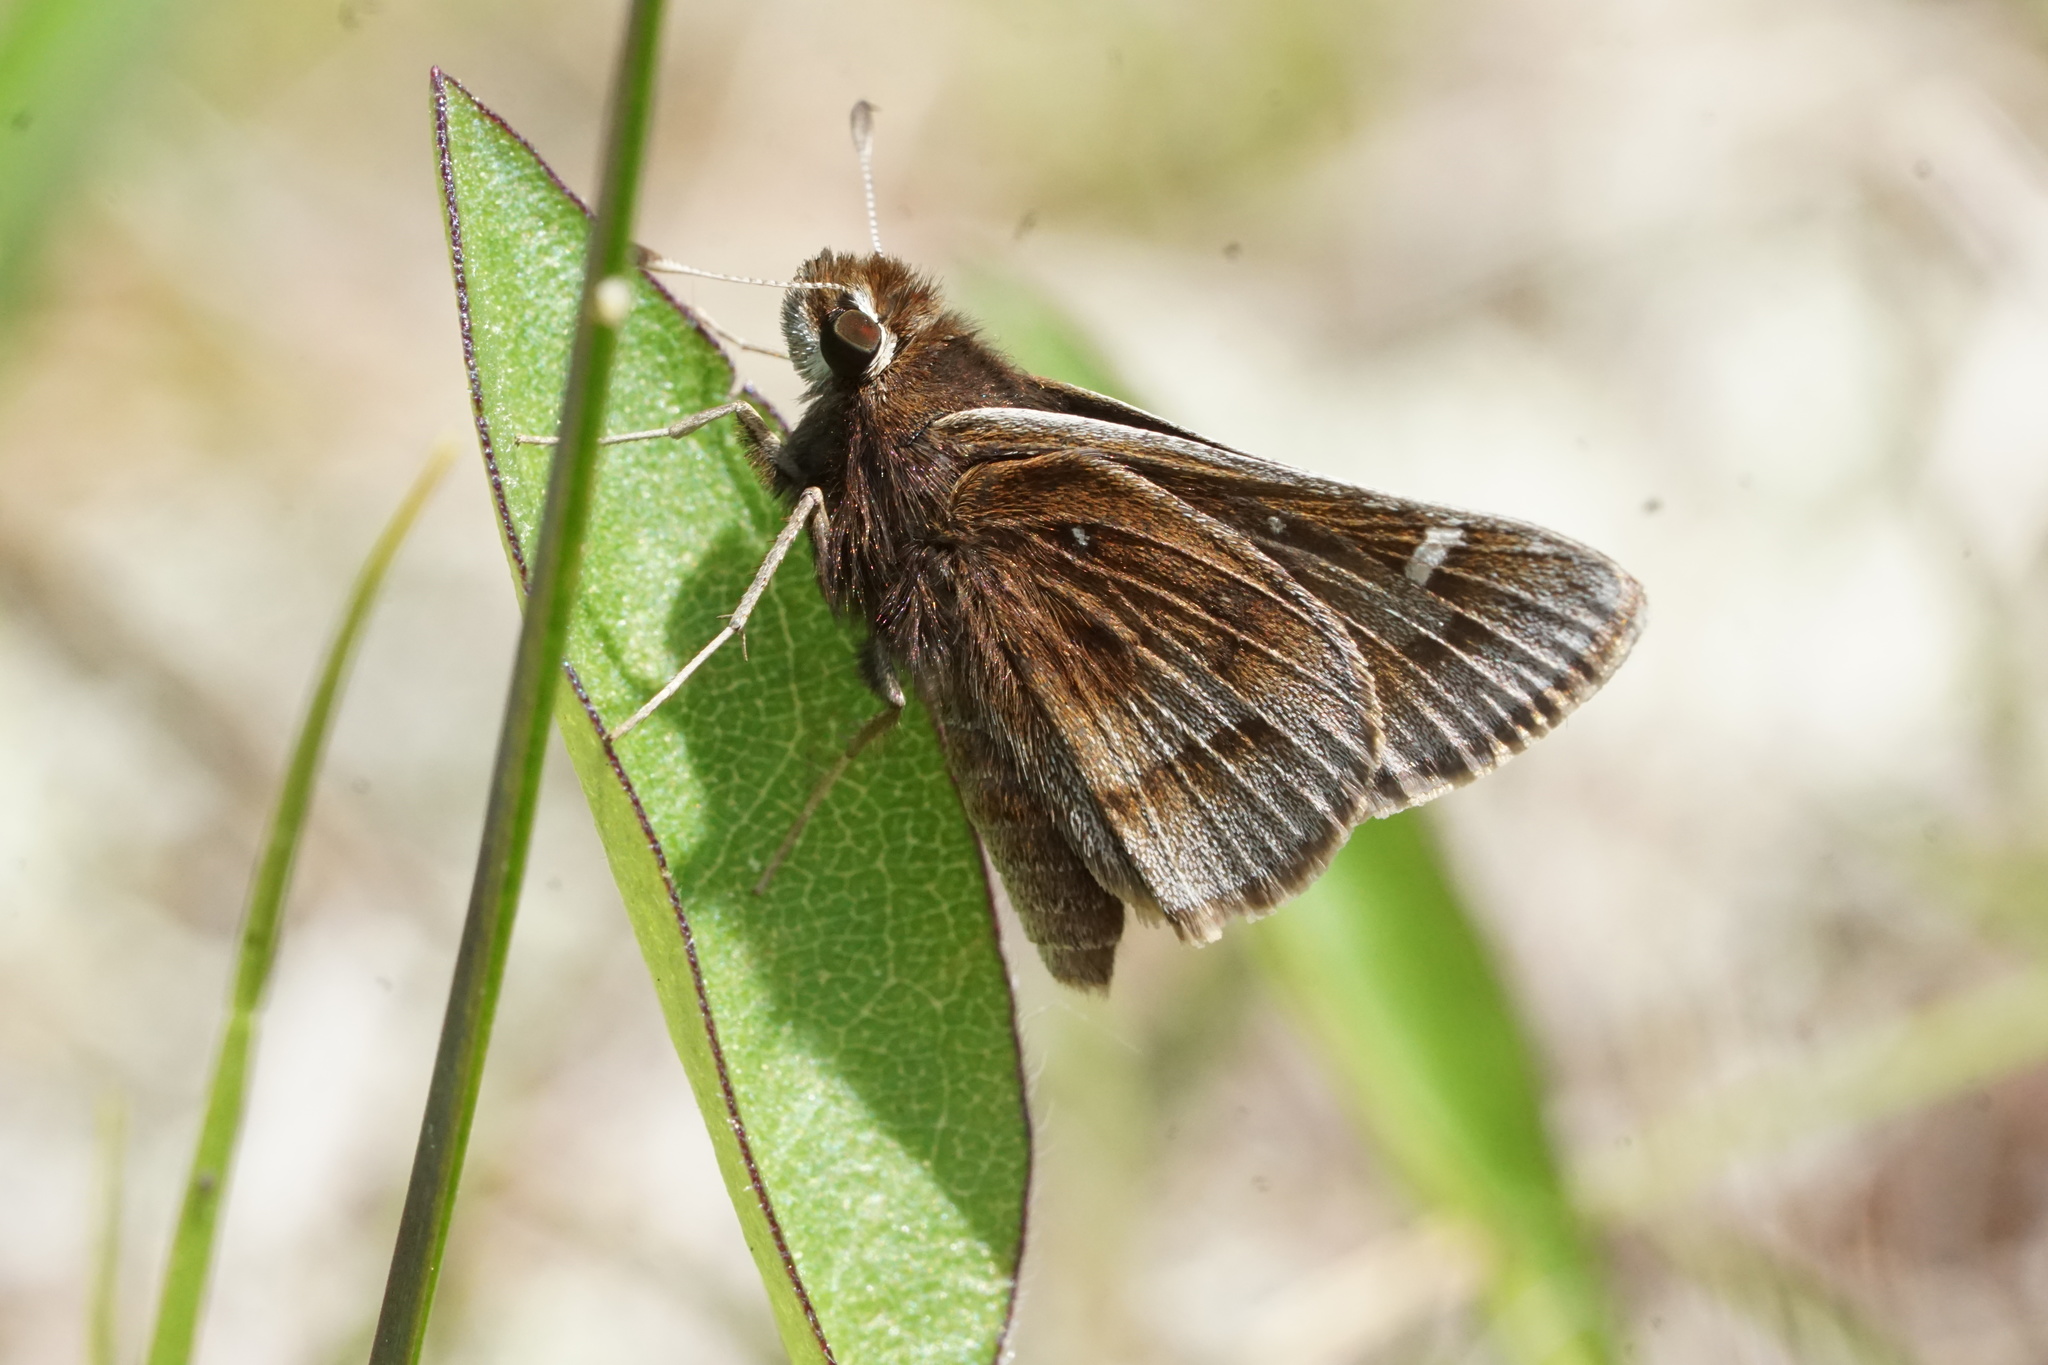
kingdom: Animalia
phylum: Arthropoda
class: Insecta
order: Lepidoptera
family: Hesperiidae
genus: Atrytonopsis
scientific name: Atrytonopsis hianna
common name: Dusted skipper
